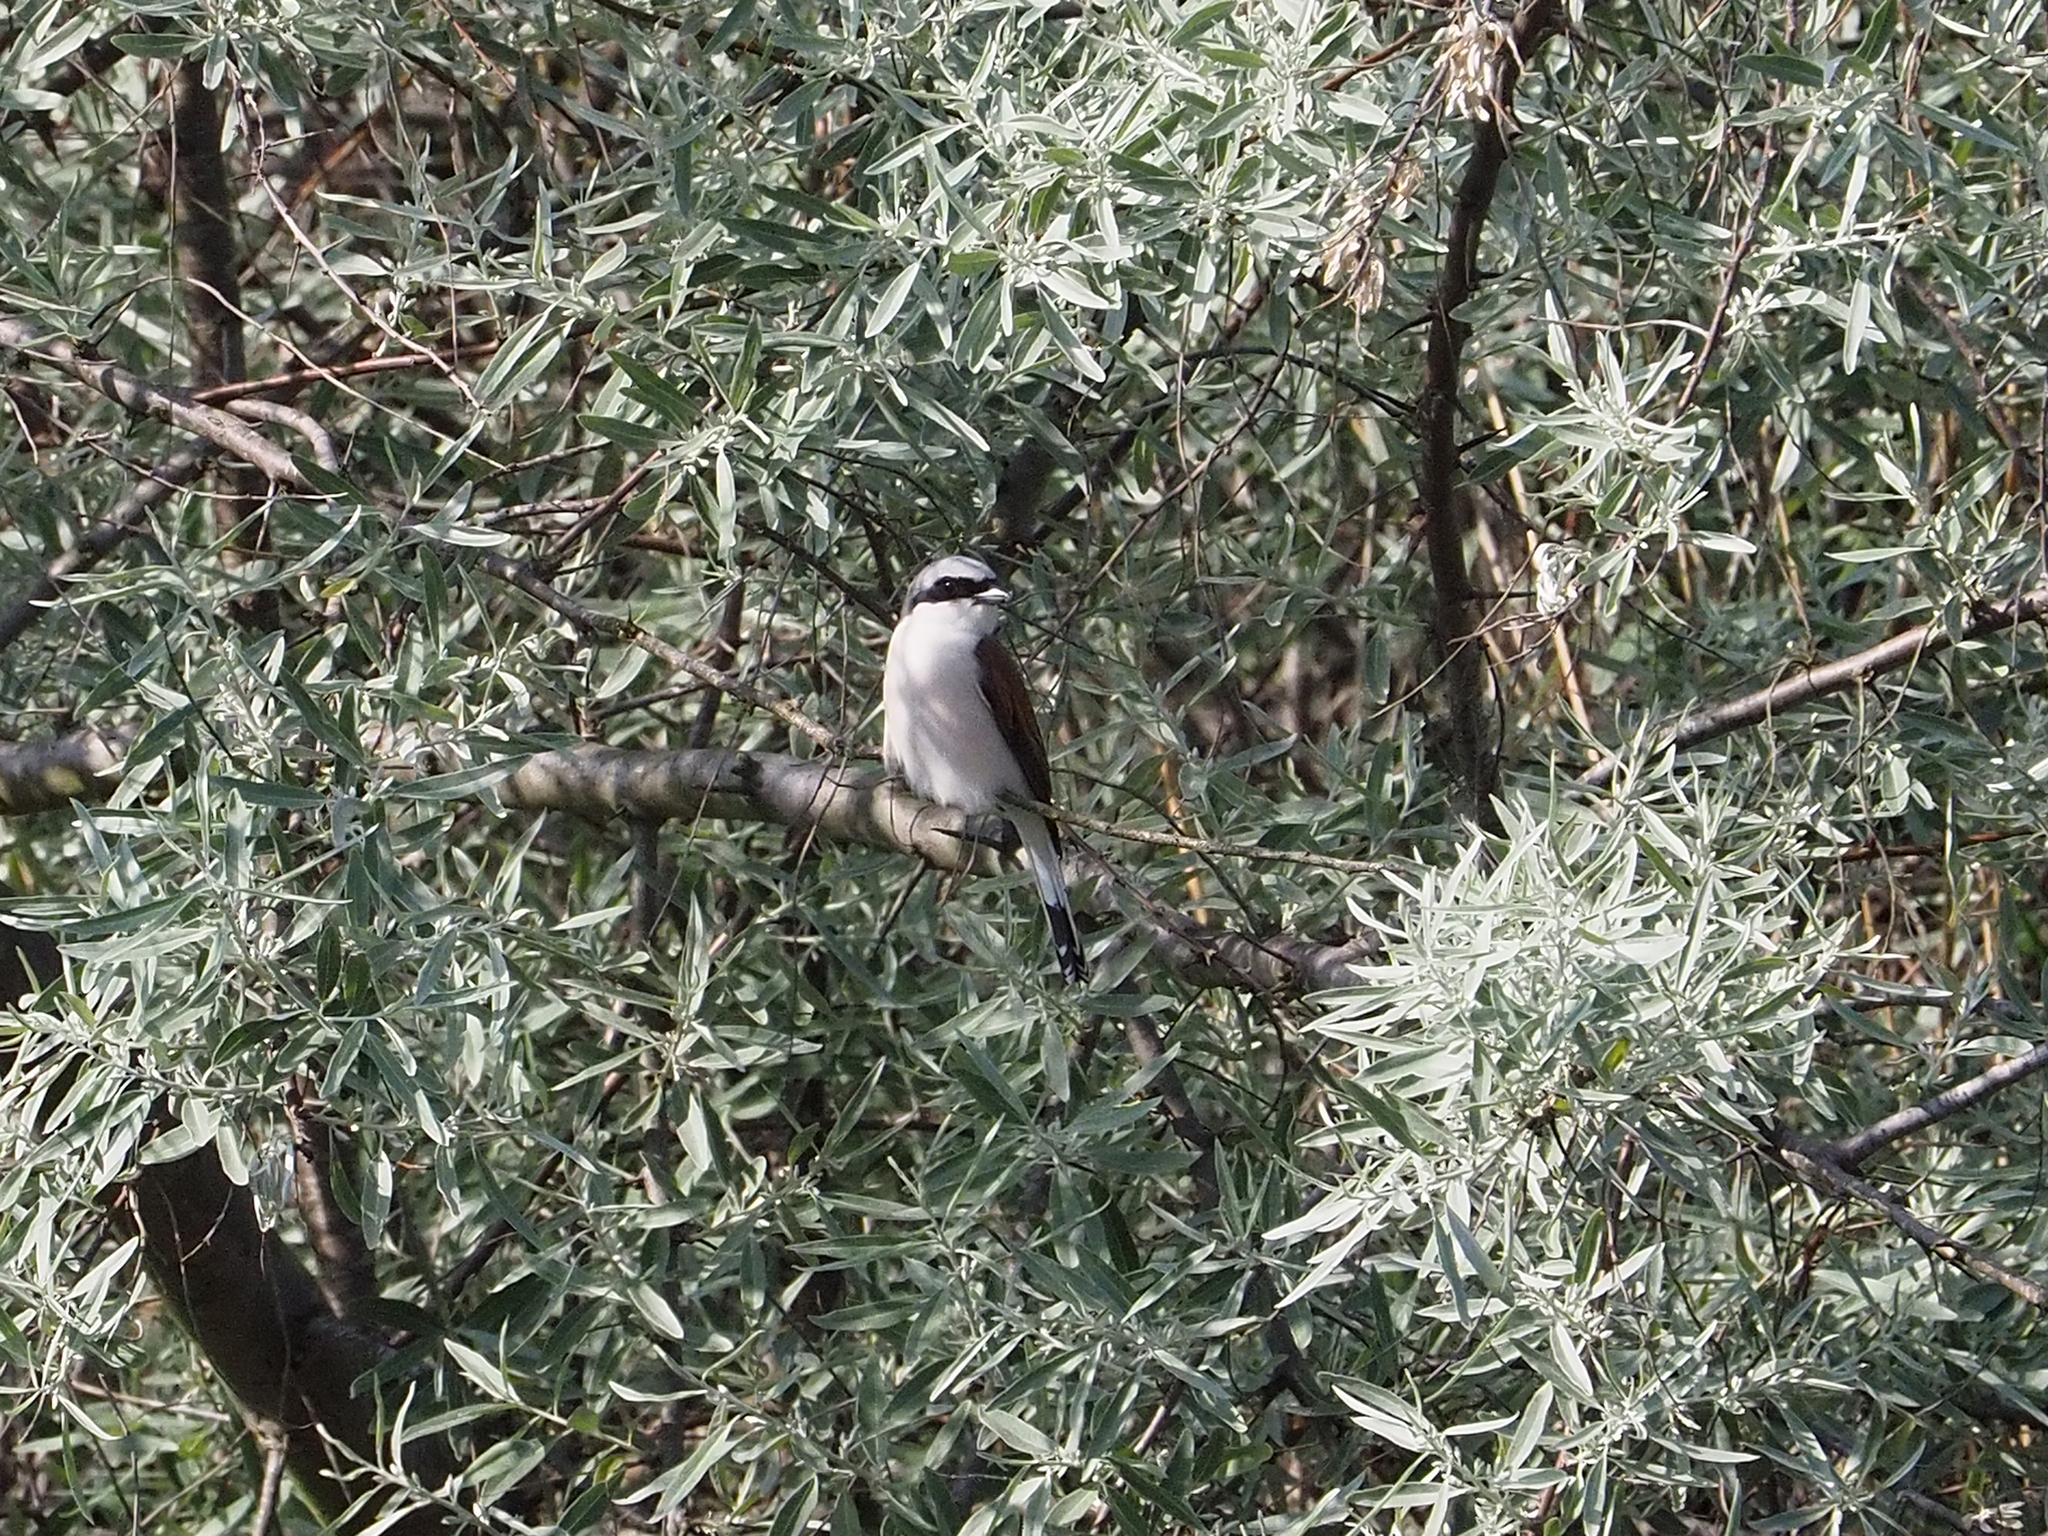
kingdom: Animalia
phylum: Chordata
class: Aves
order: Passeriformes
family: Laniidae
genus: Lanius
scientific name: Lanius collurio
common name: Red-backed shrike
